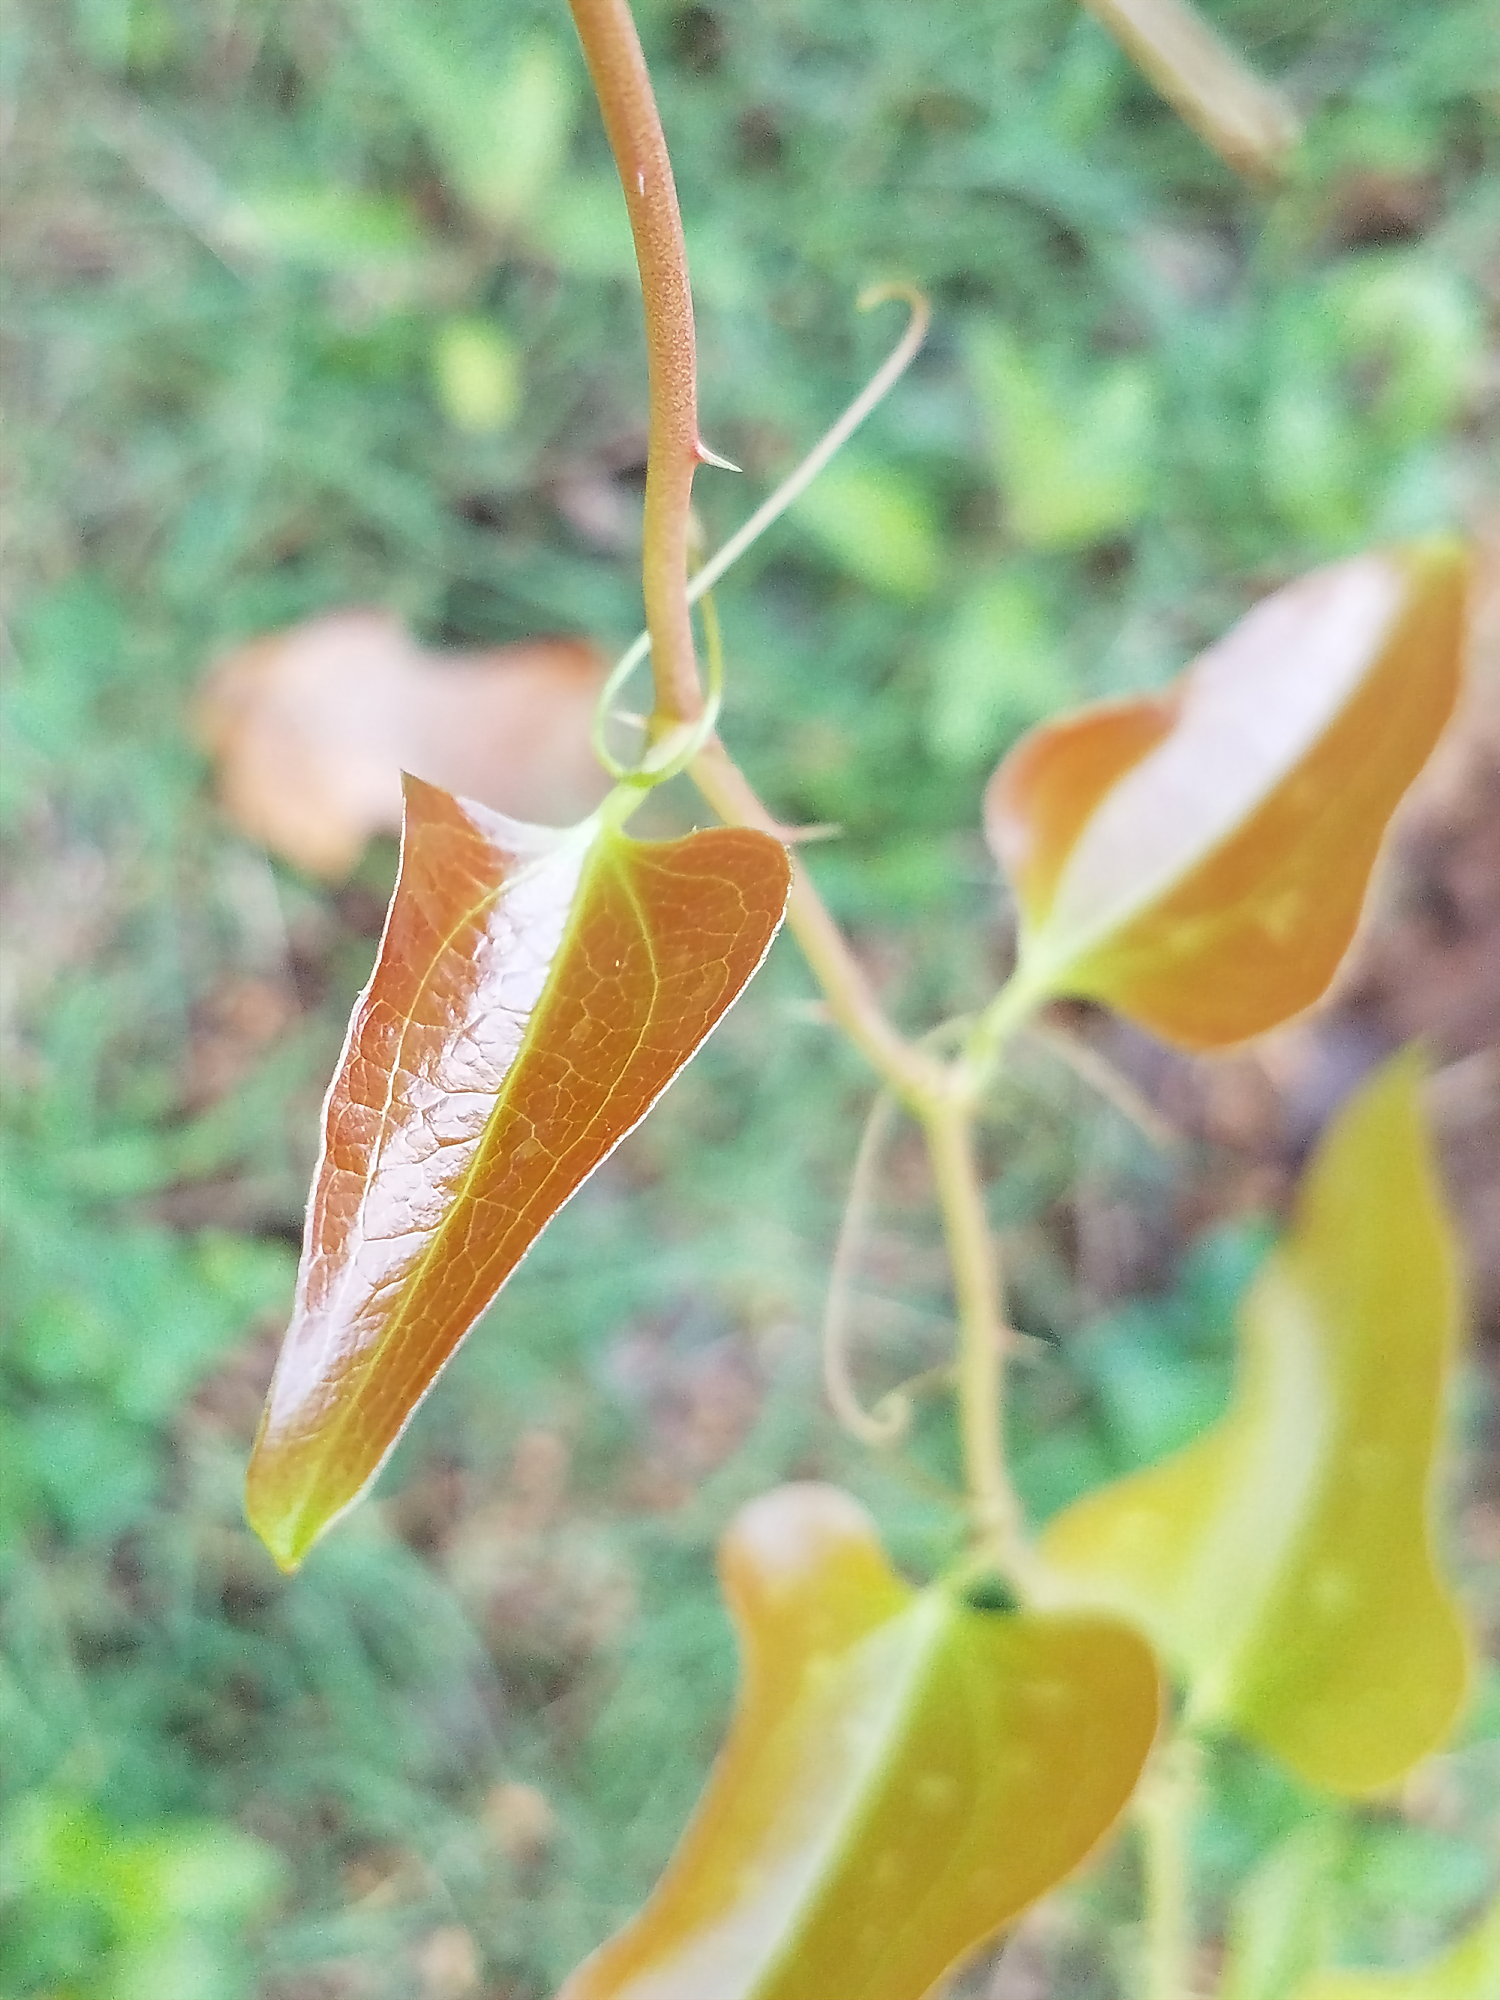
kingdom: Plantae
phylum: Tracheophyta
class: Liliopsida
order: Liliales
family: Smilacaceae
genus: Smilax
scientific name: Smilax bona-nox
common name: Catbrier
